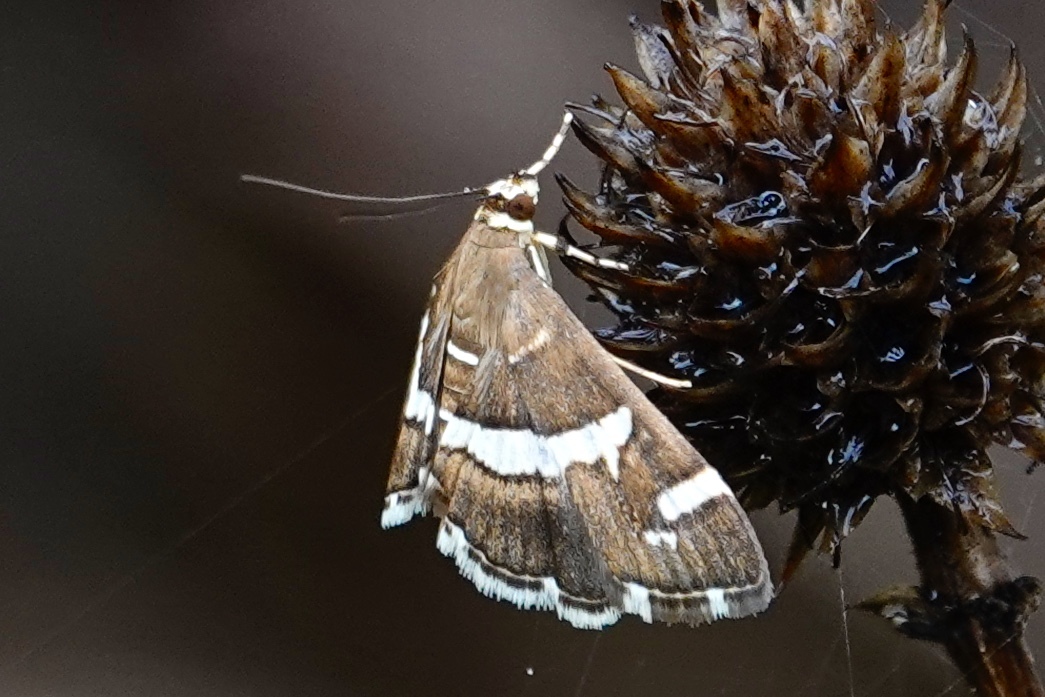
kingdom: Animalia
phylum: Arthropoda
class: Insecta
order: Lepidoptera
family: Crambidae
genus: Spoladea
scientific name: Spoladea recurvalis
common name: Beet webworm moth
